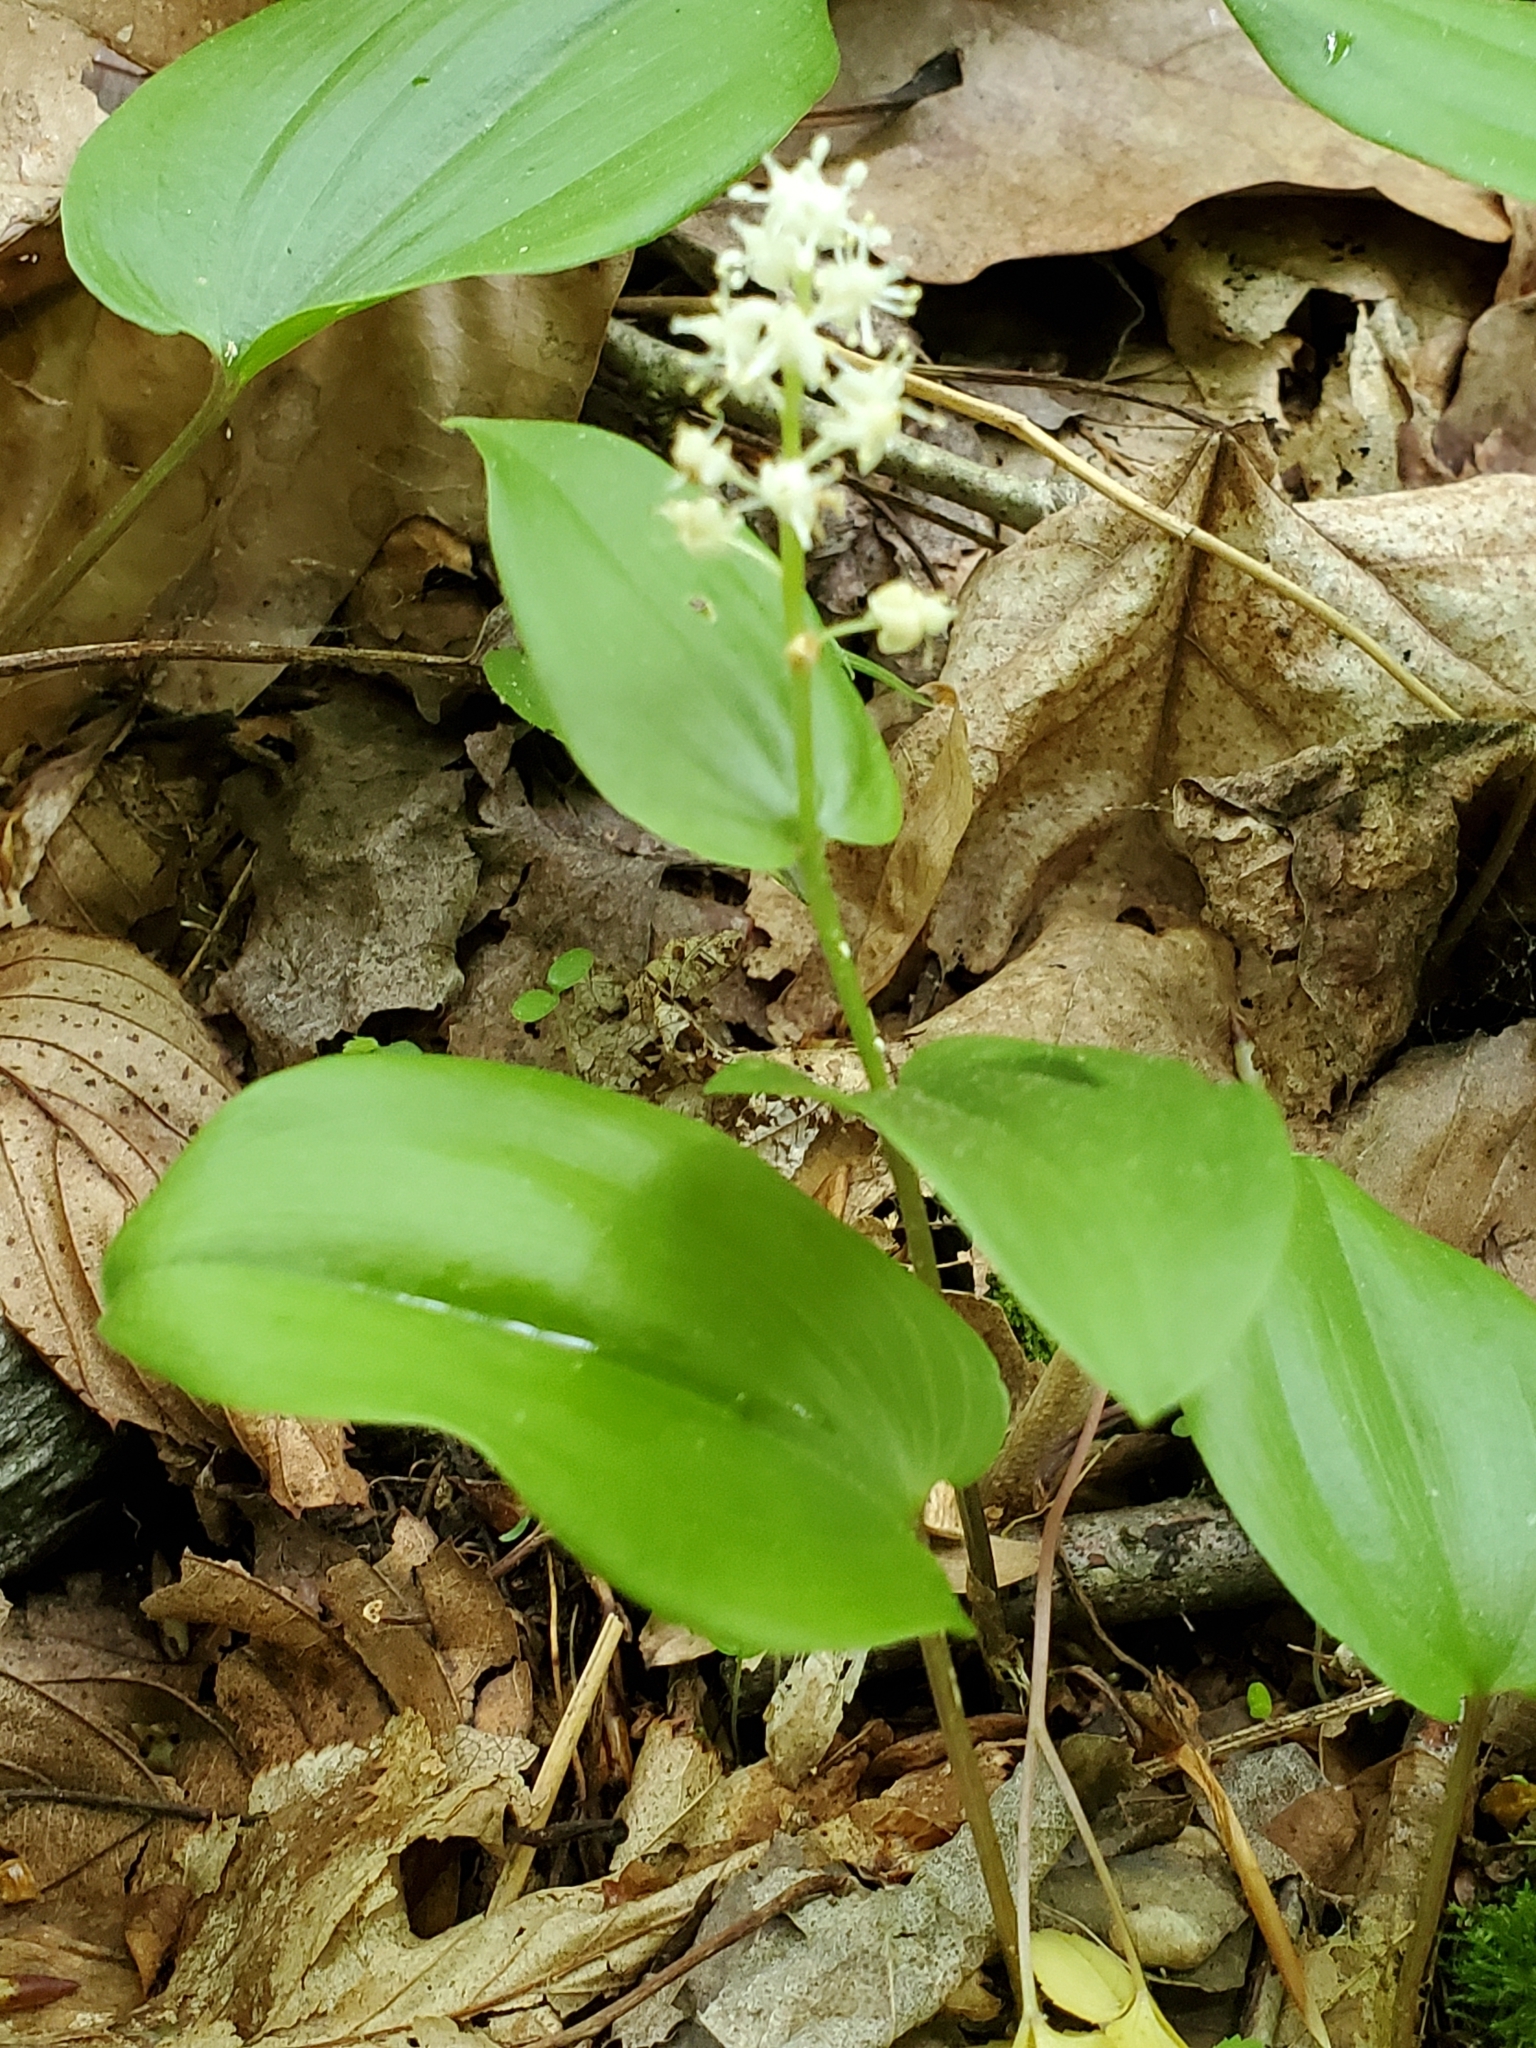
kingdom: Plantae
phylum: Tracheophyta
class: Liliopsida
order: Asparagales
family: Asparagaceae
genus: Maianthemum
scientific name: Maianthemum canadense
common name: False lily-of-the-valley
